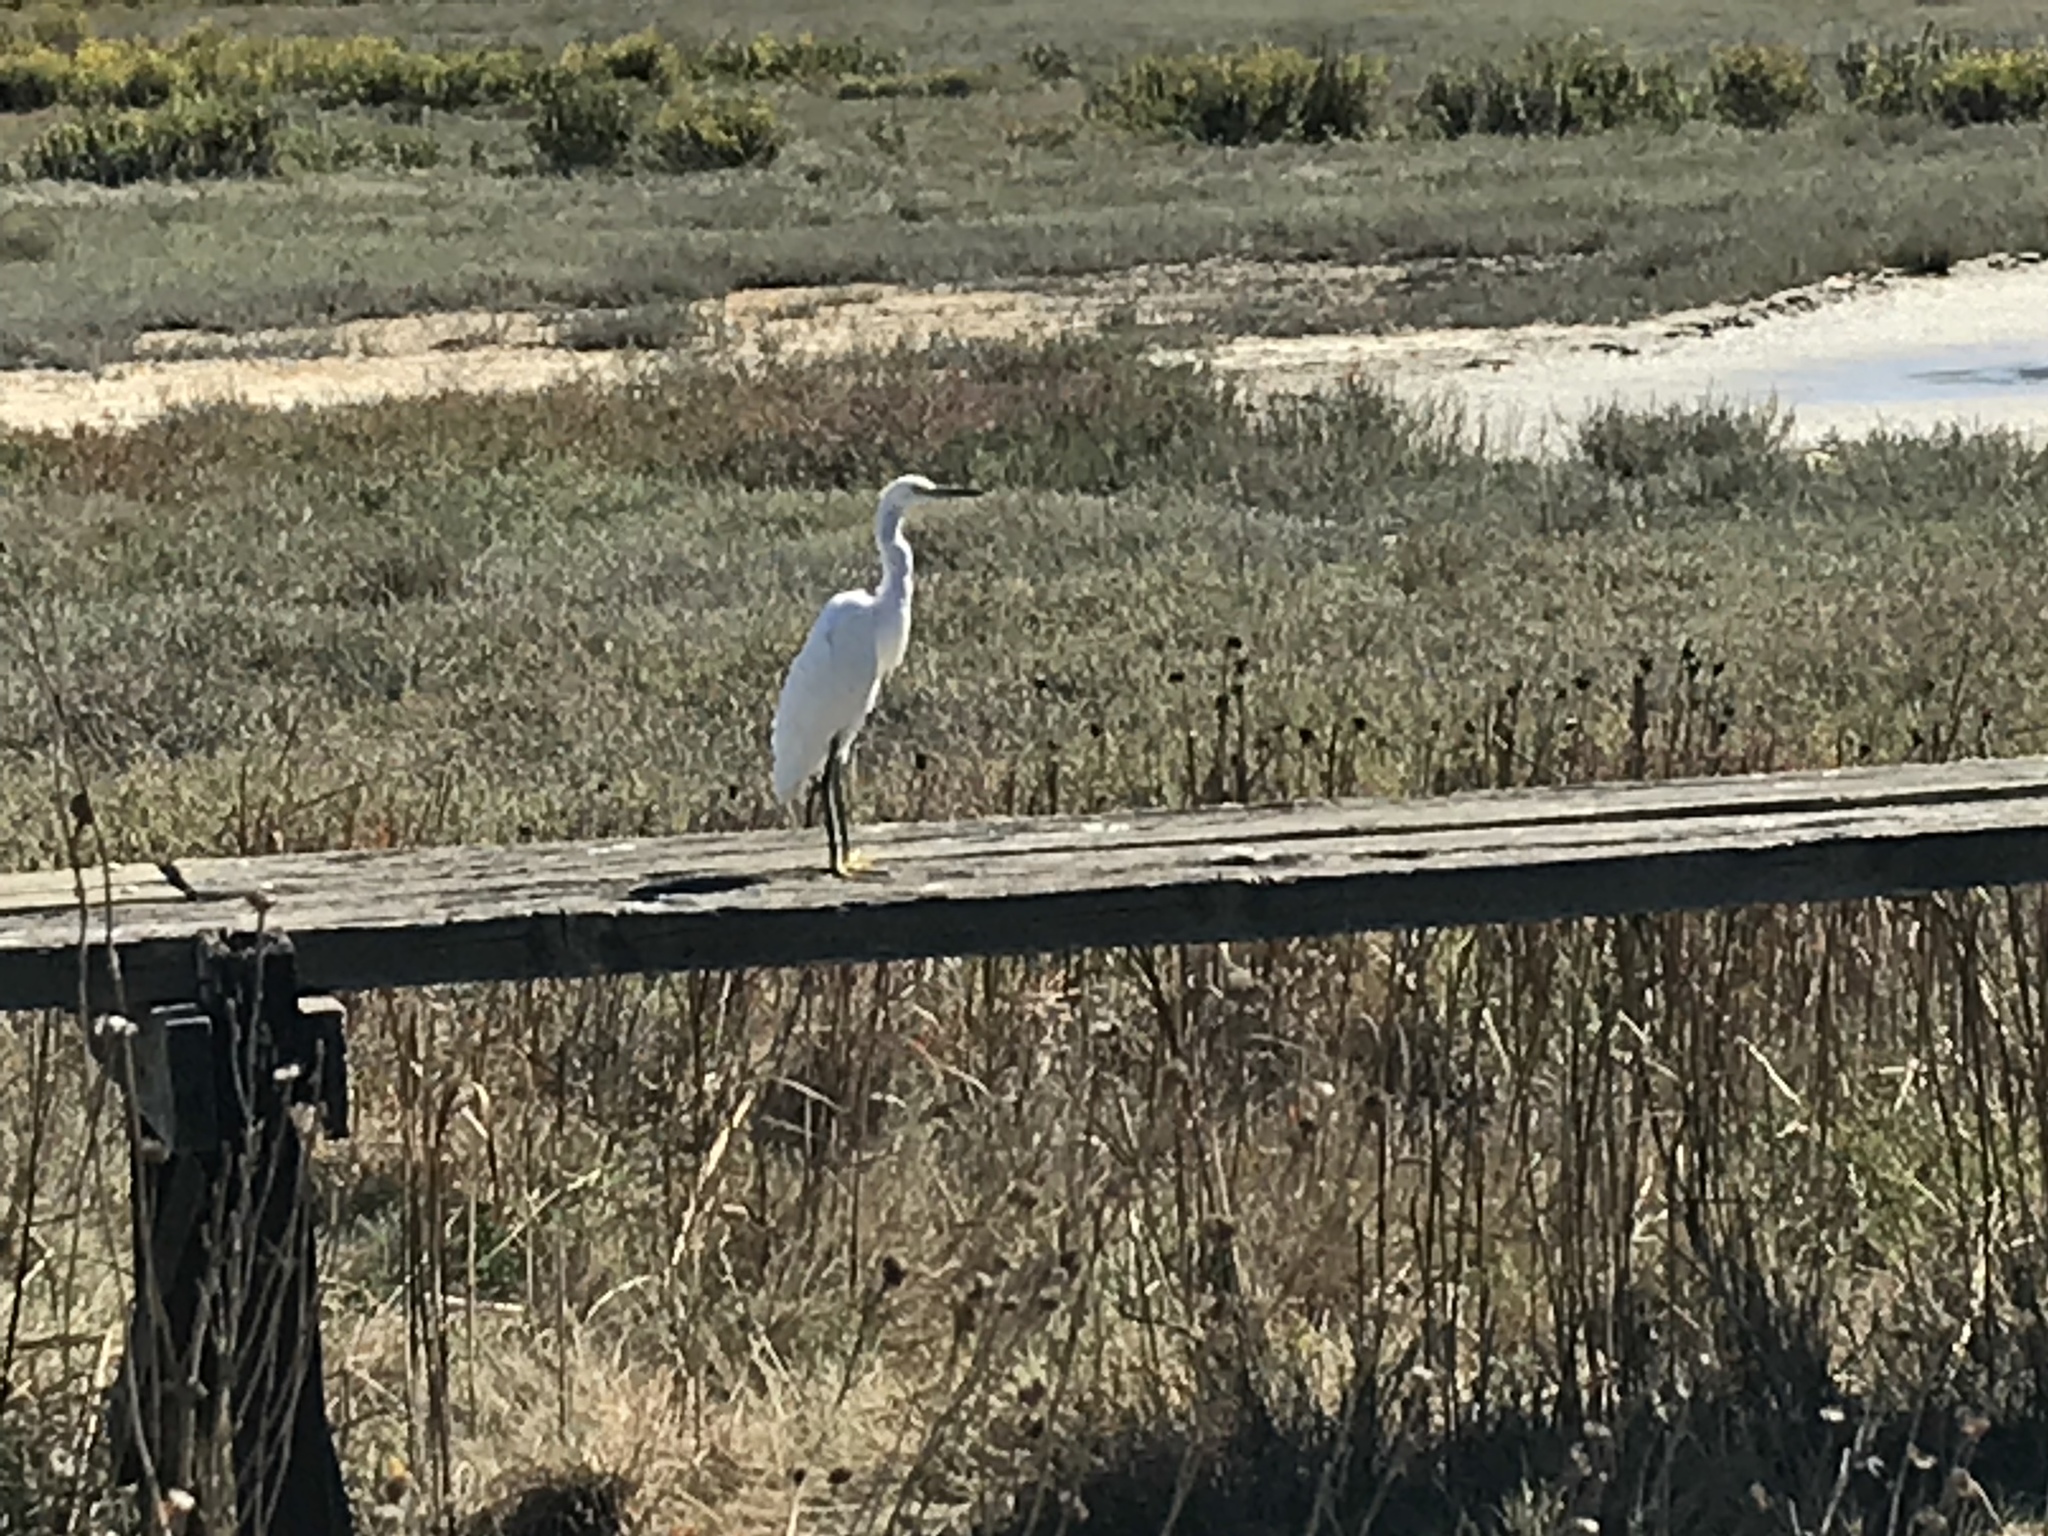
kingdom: Animalia
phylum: Chordata
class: Aves
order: Pelecaniformes
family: Ardeidae
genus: Egretta
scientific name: Egretta thula
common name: Snowy egret
